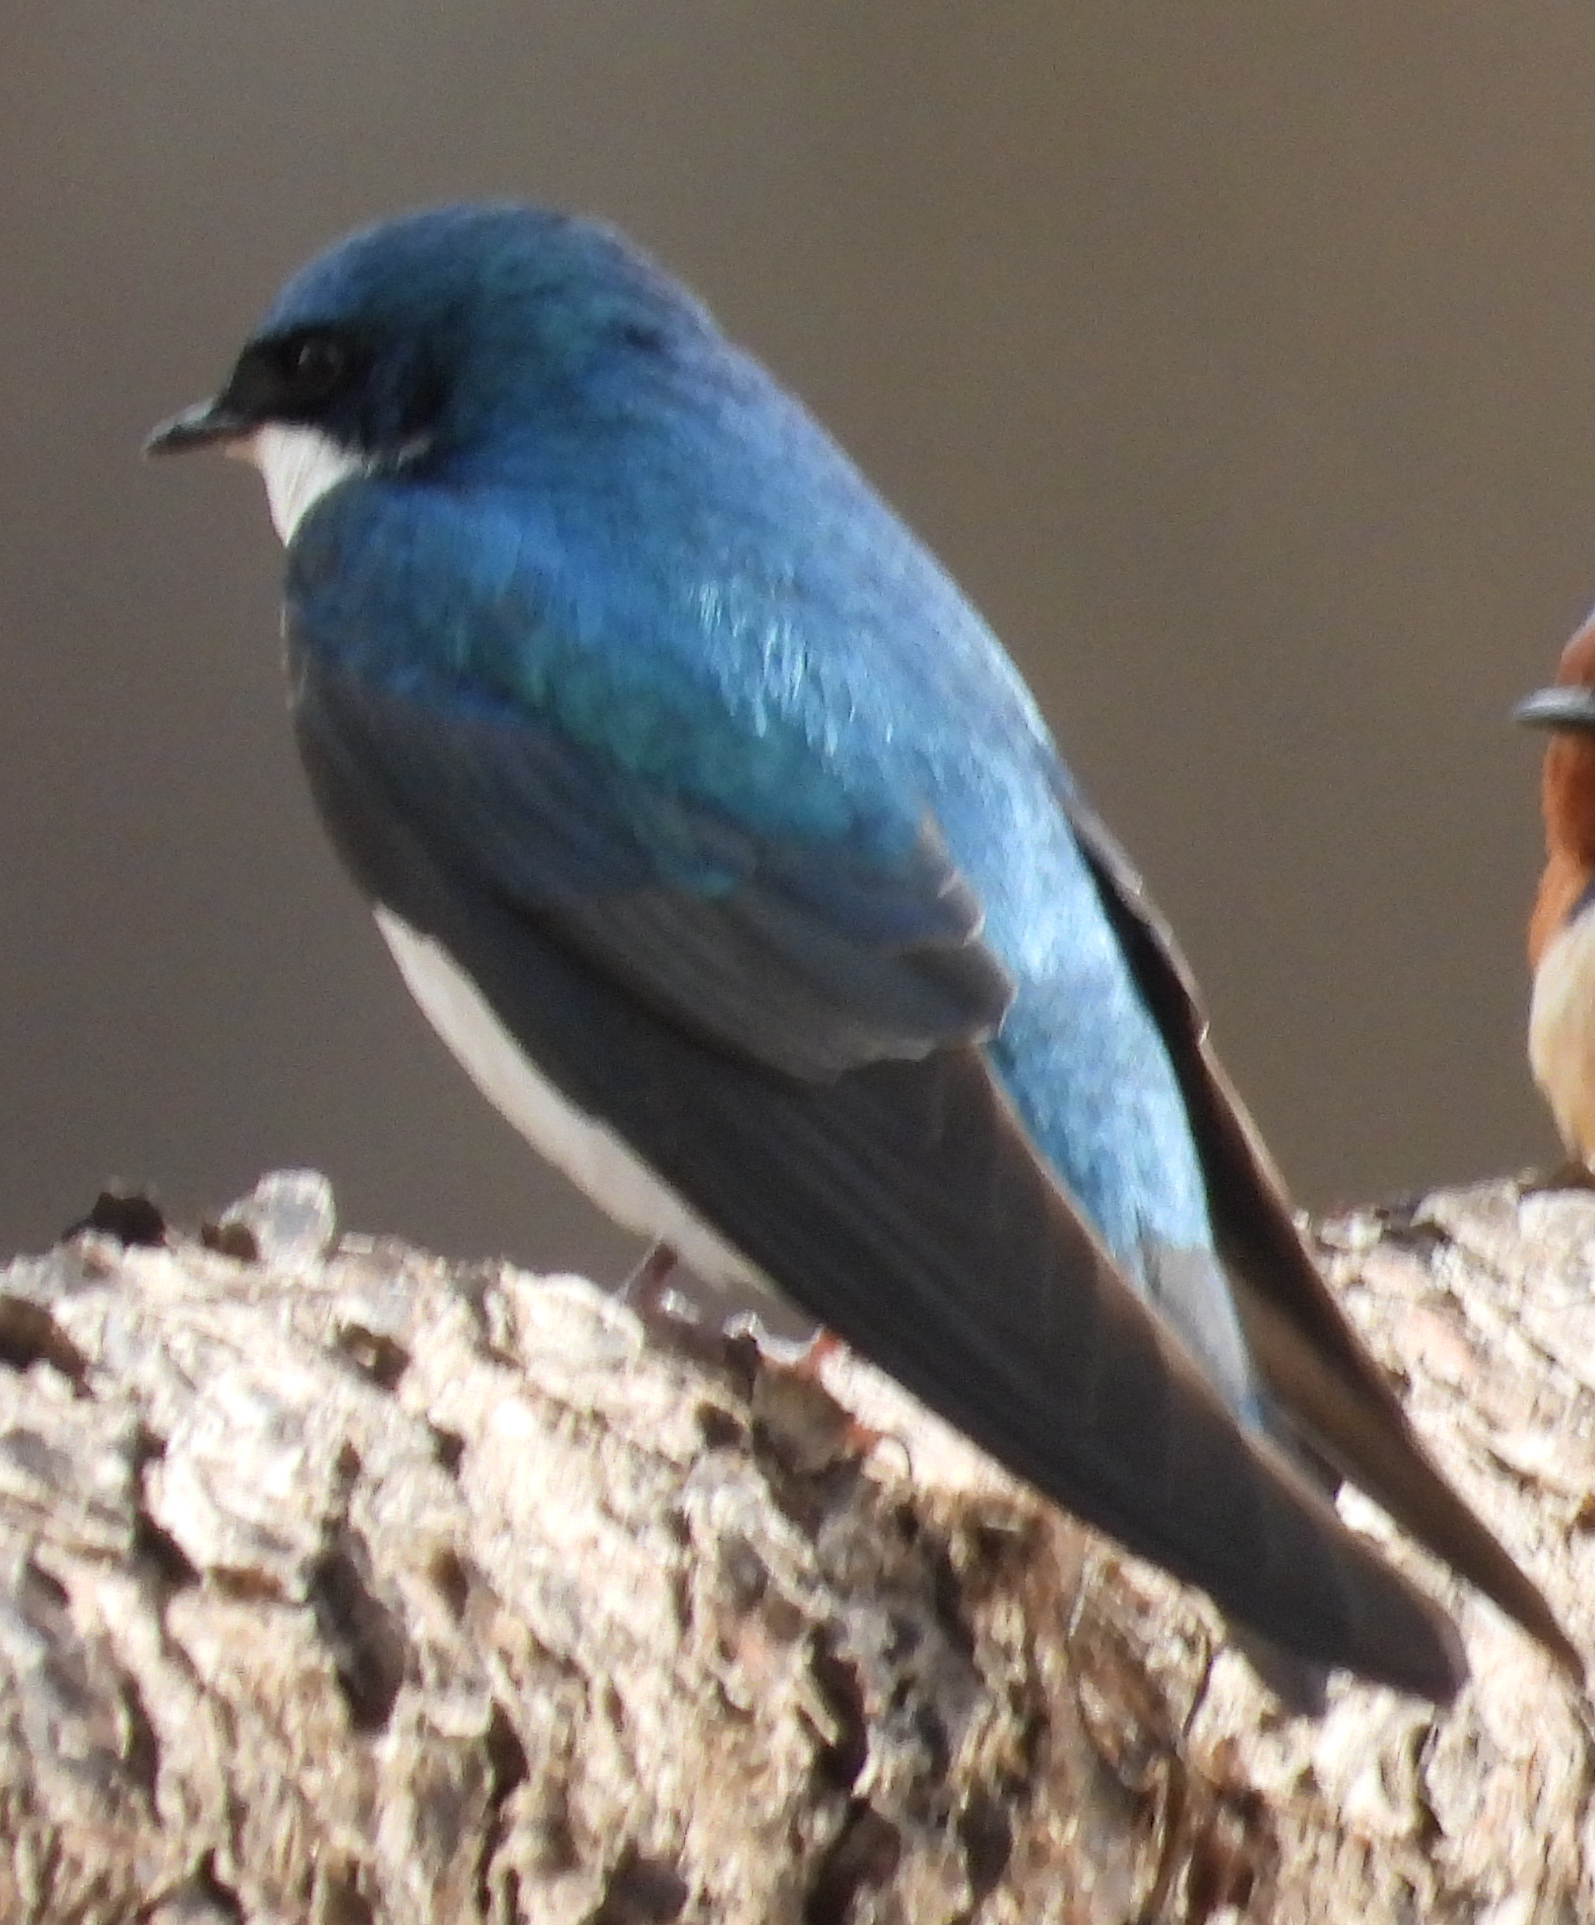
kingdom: Animalia
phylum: Chordata
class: Aves
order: Passeriformes
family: Hirundinidae
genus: Tachycineta
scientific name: Tachycineta bicolor
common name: Tree swallow
